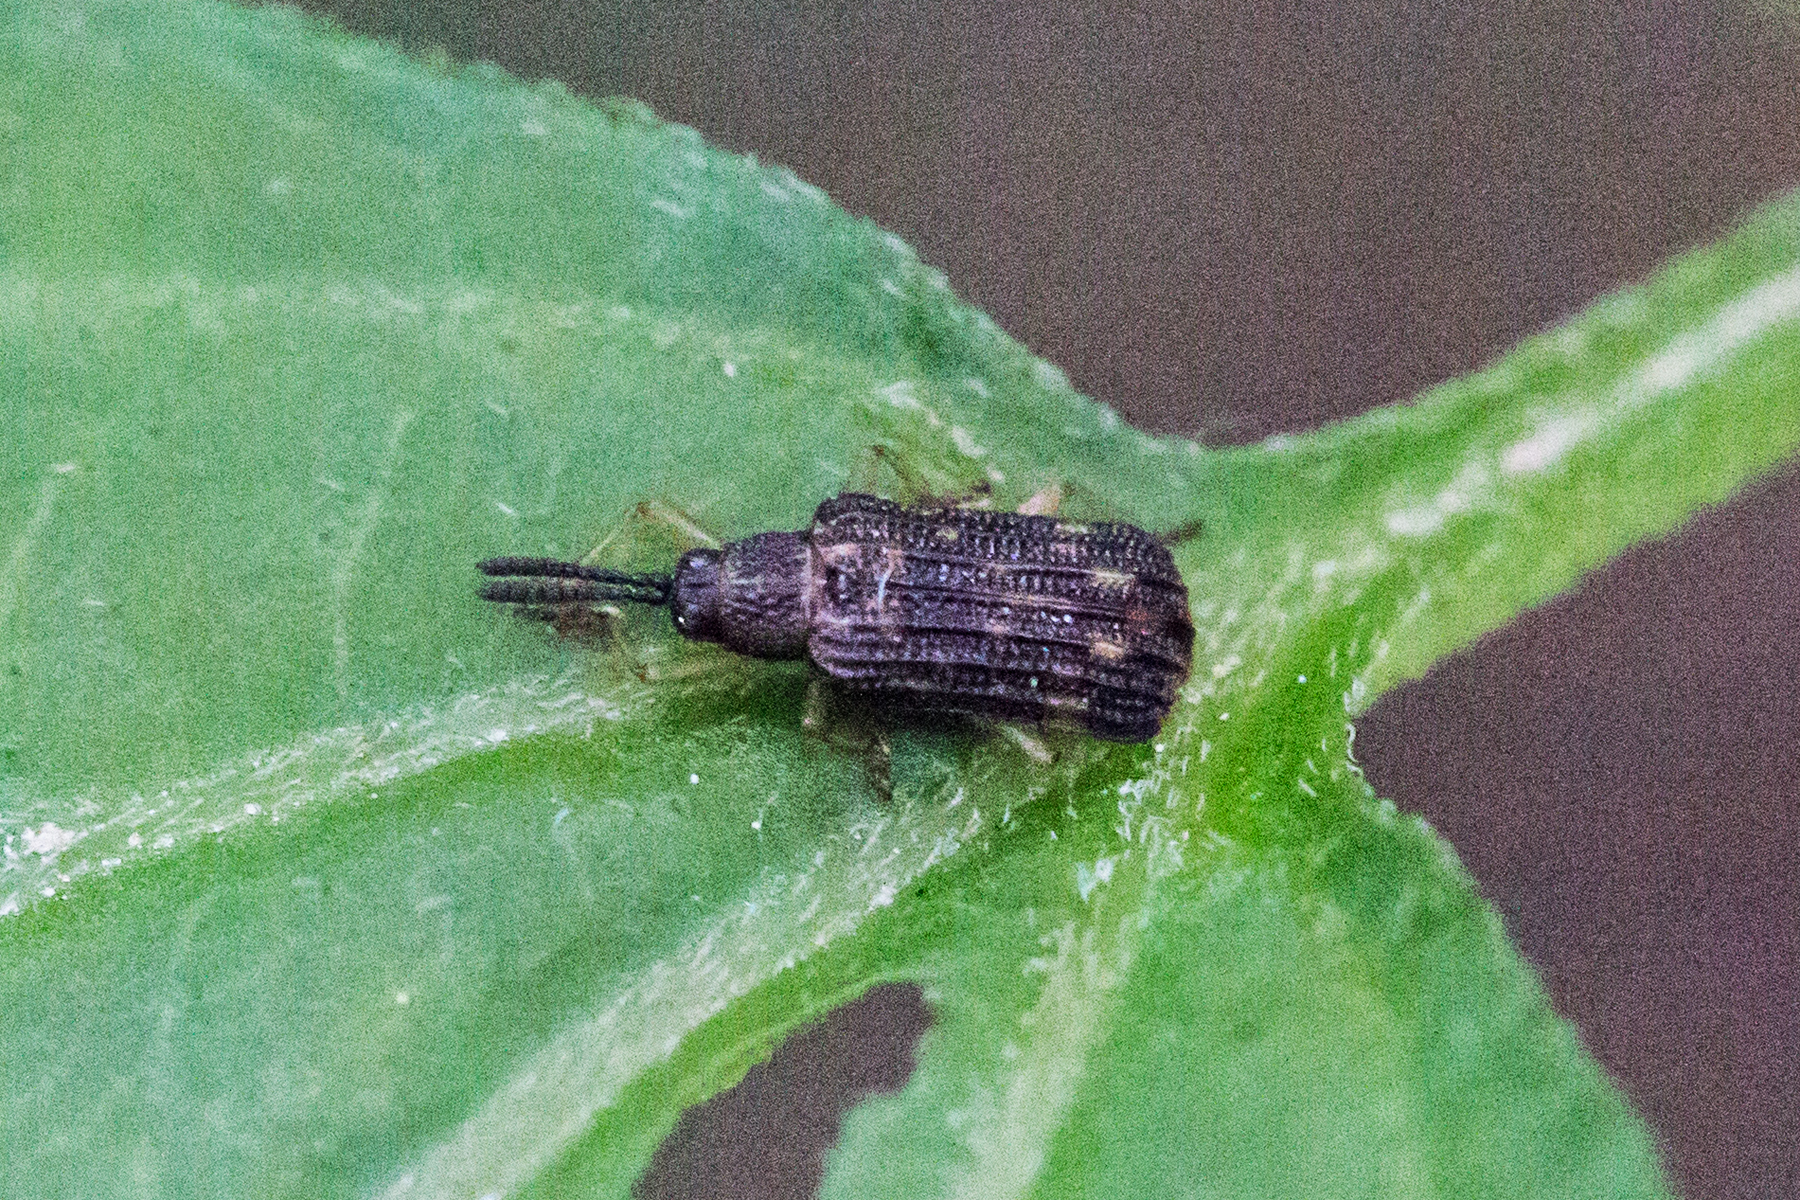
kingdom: Animalia
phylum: Arthropoda
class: Insecta
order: Coleoptera
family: Chrysomelidae
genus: Sumitrosis
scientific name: Sumitrosis inaequalis
